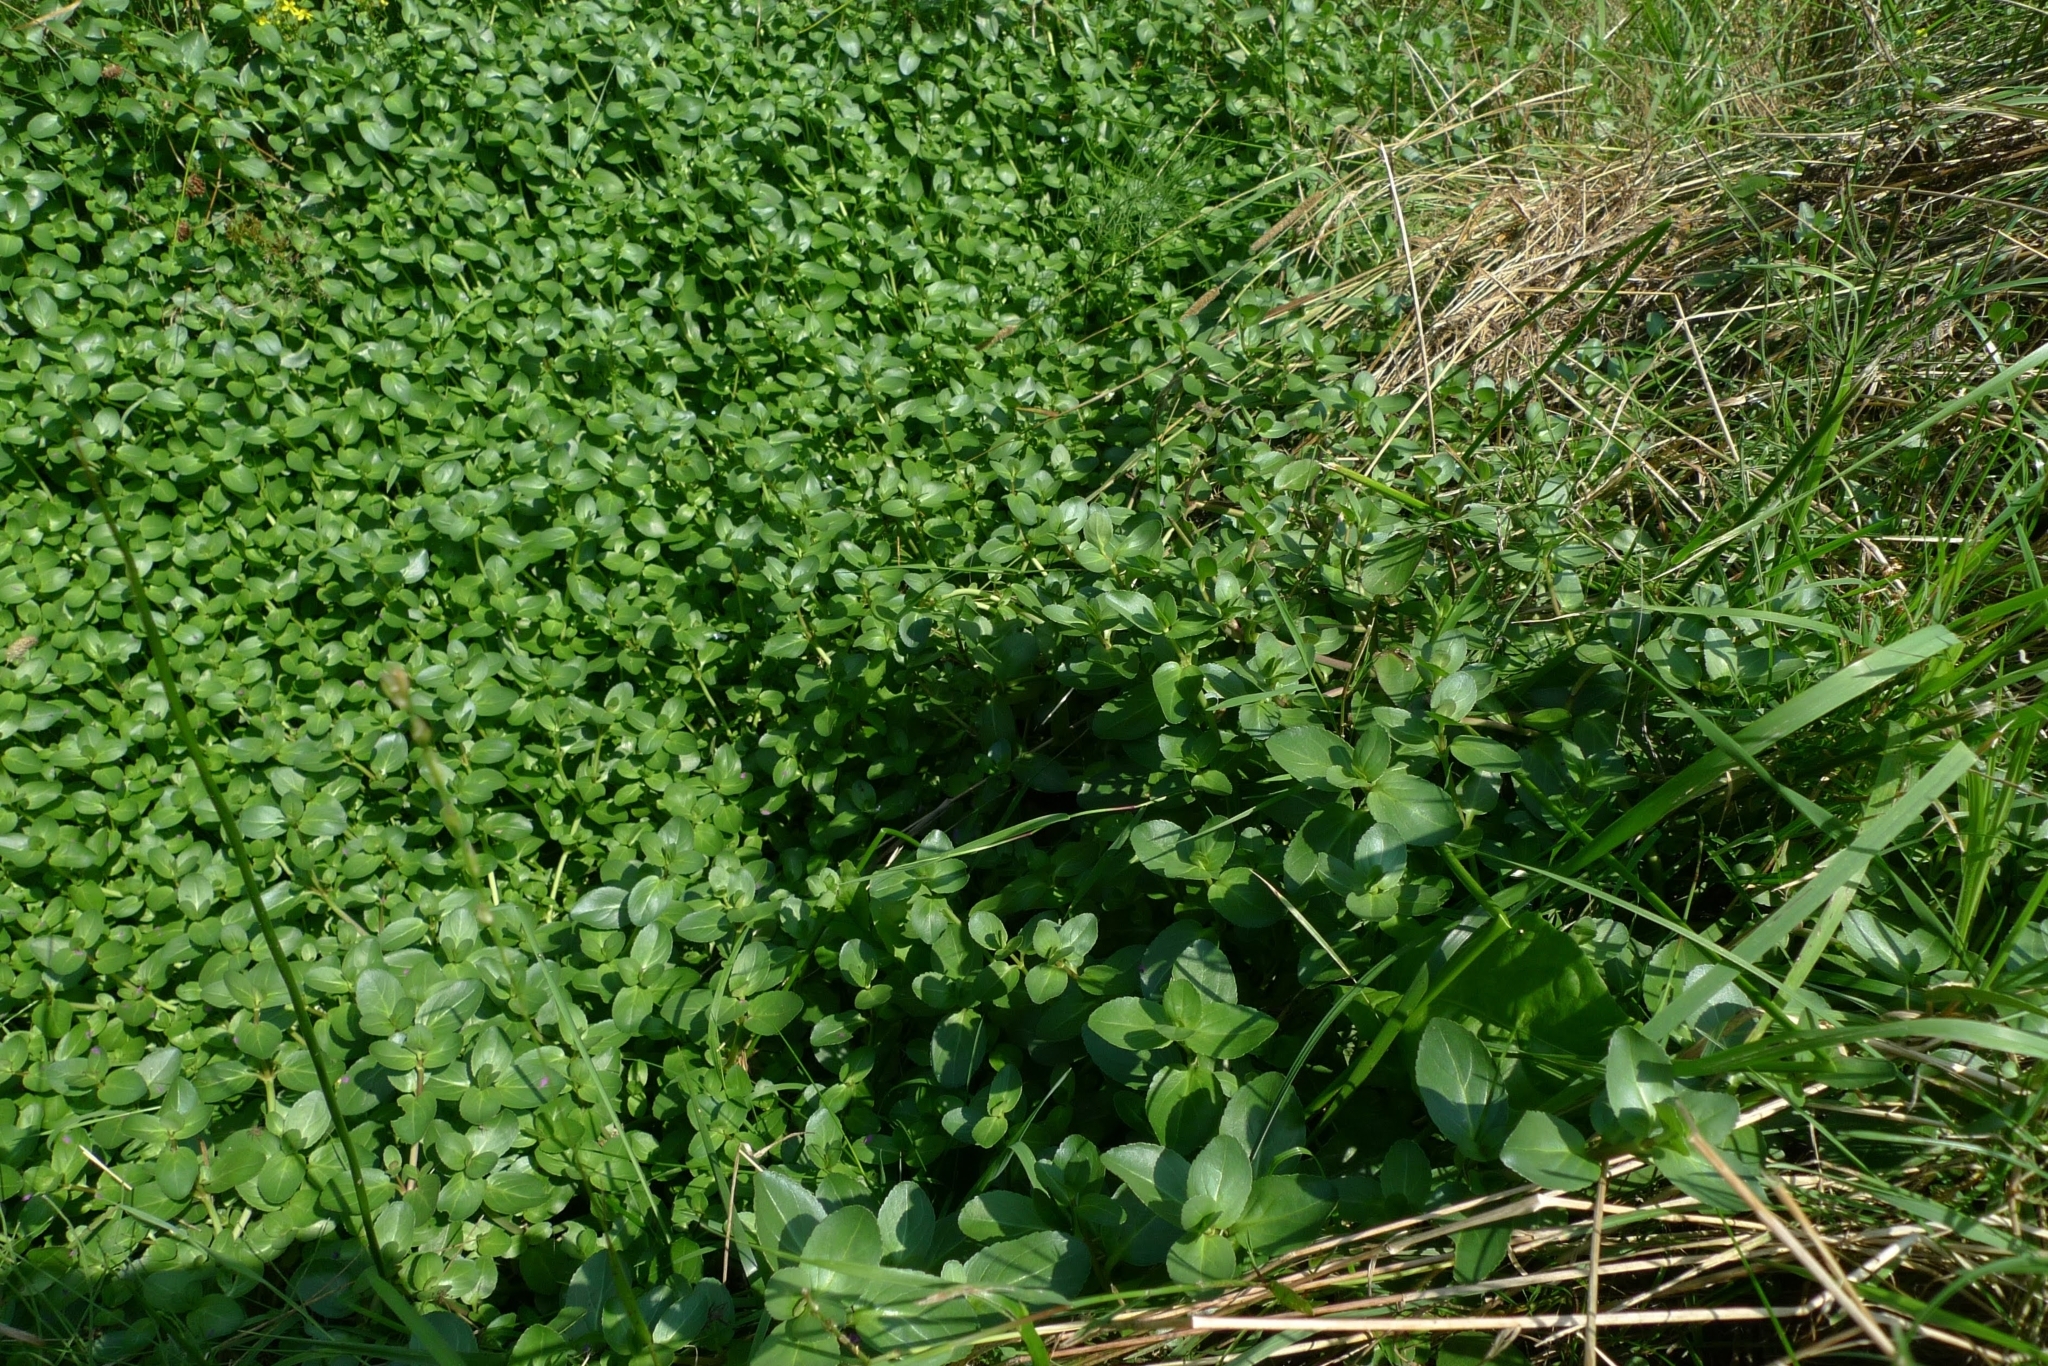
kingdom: Plantae
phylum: Tracheophyta
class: Magnoliopsida
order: Lamiales
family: Plantaginaceae
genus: Veronica
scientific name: Veronica beccabunga
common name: Brooklime
